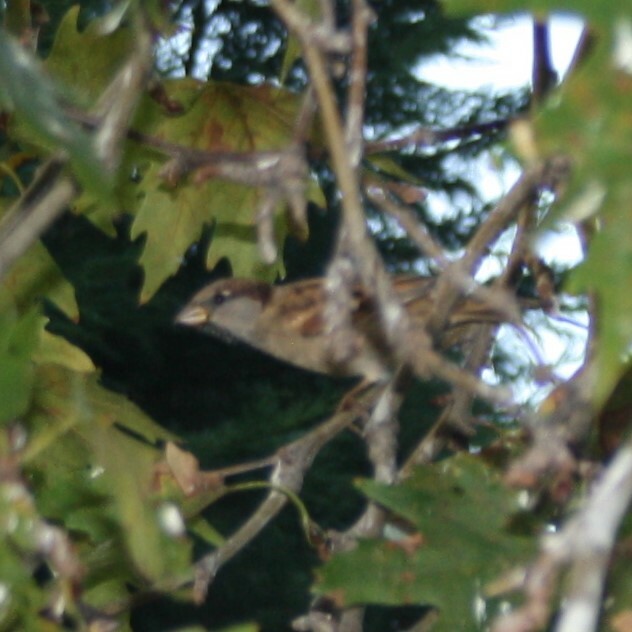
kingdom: Animalia
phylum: Chordata
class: Aves
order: Passeriformes
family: Passeridae
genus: Passer
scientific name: Passer domesticus
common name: House sparrow
